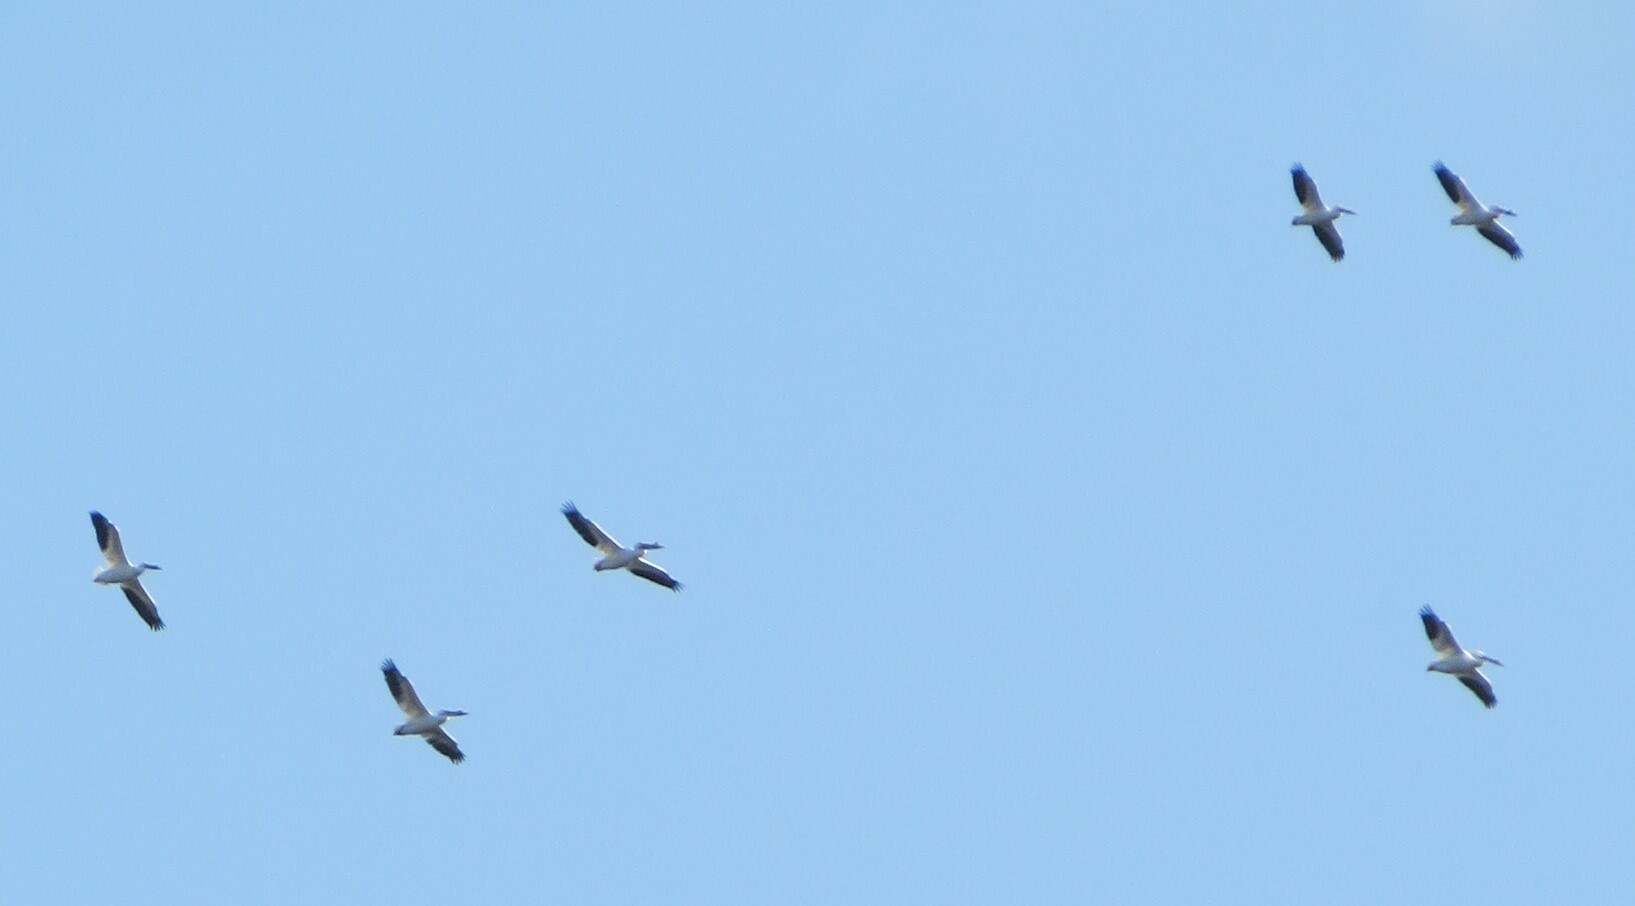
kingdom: Animalia
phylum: Chordata
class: Aves
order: Pelecaniformes
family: Pelecanidae
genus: Pelecanus
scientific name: Pelecanus erythrorhynchos
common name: American white pelican
